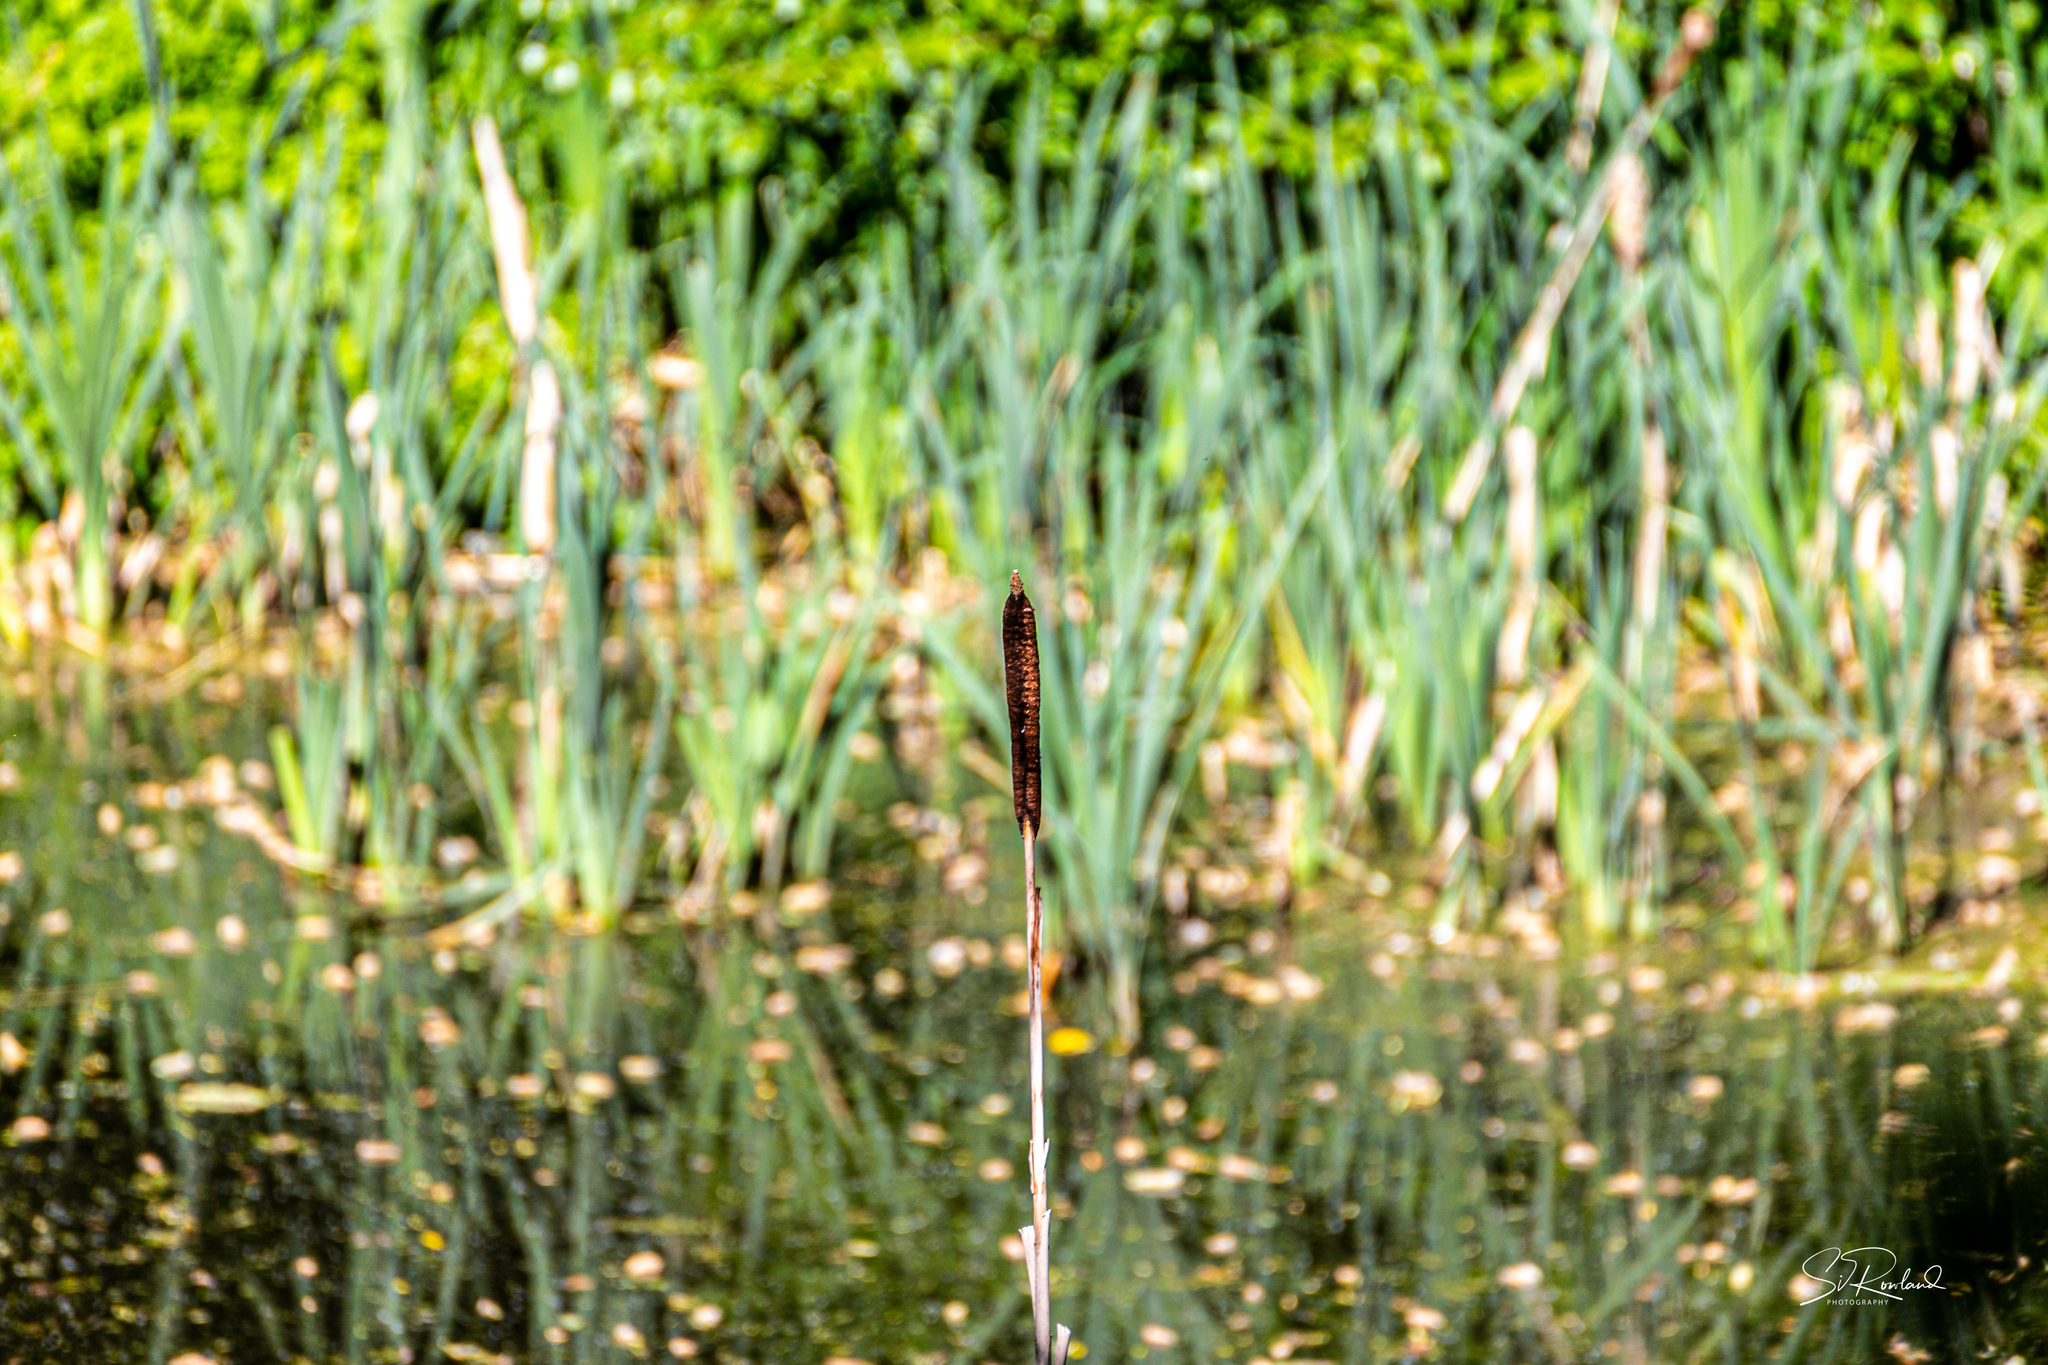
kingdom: Plantae
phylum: Tracheophyta
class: Liliopsida
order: Poales
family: Typhaceae
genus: Typha
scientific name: Typha latifolia
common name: Broadleaf cattail
